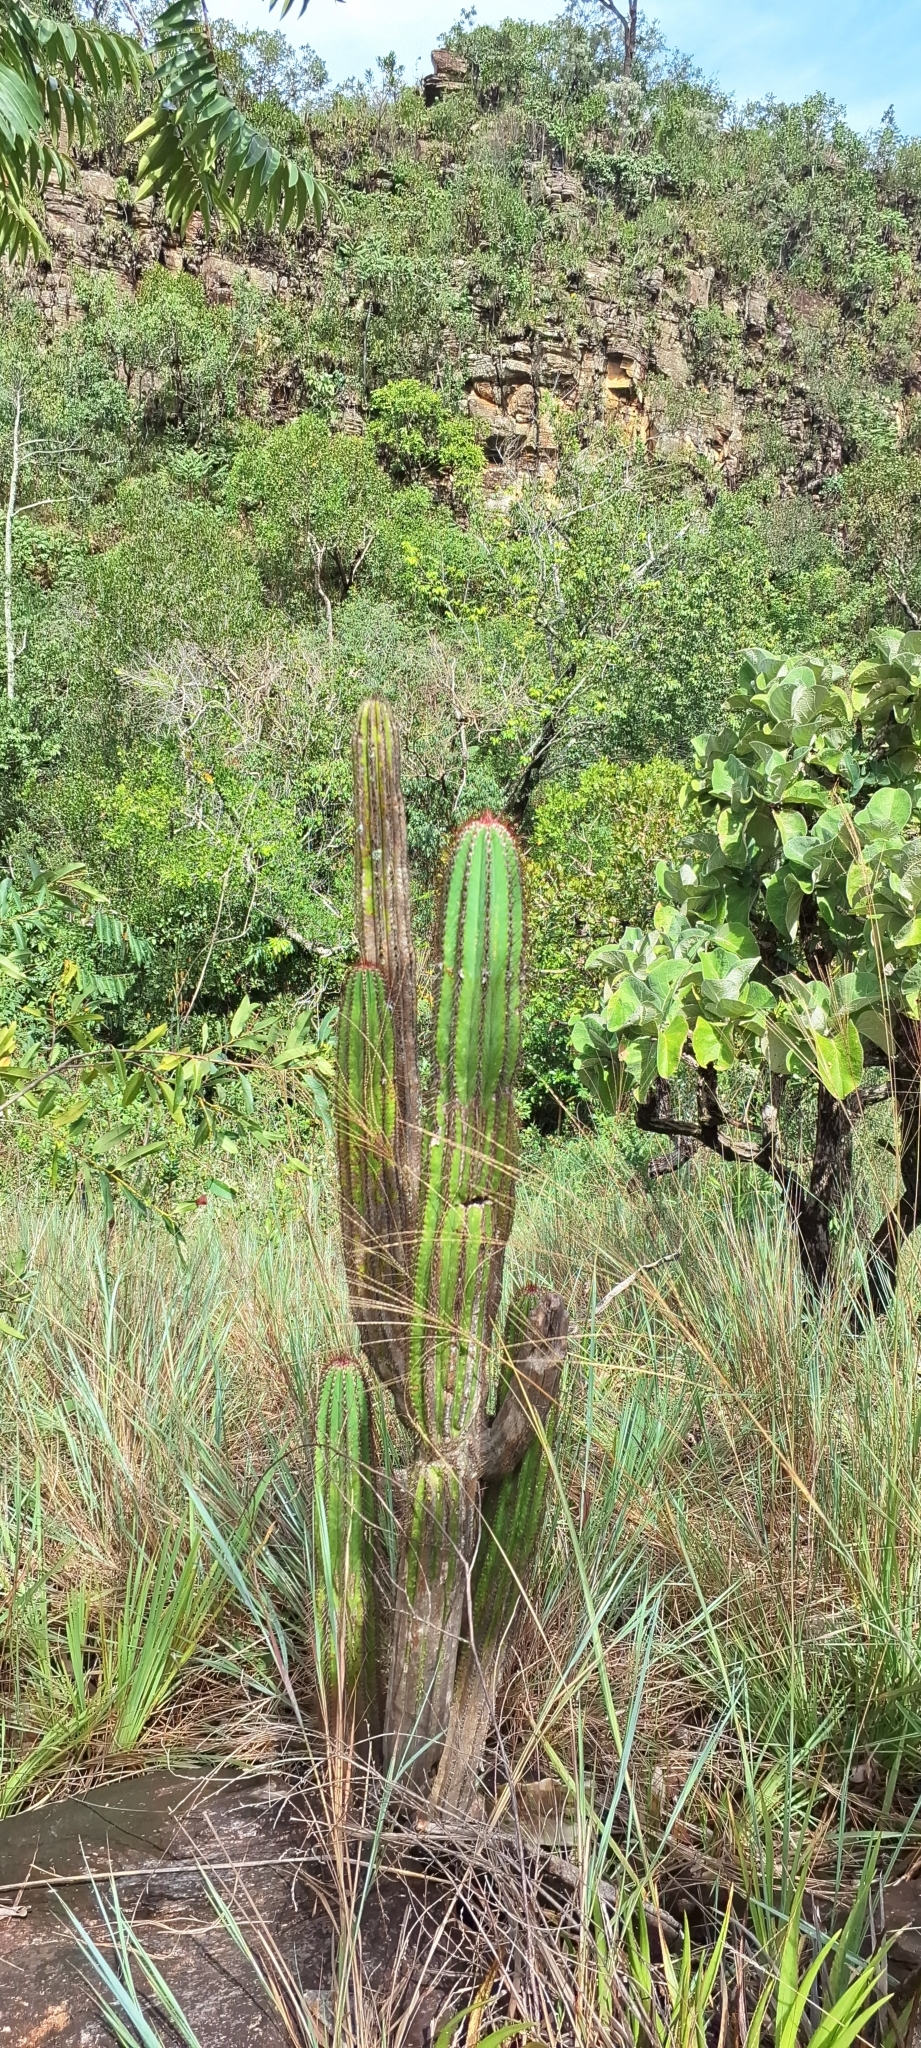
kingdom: Plantae
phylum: Tracheophyta
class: Magnoliopsida
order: Caryophyllales
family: Cactaceae
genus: Pilosocereus
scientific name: Pilosocereus machrisii
